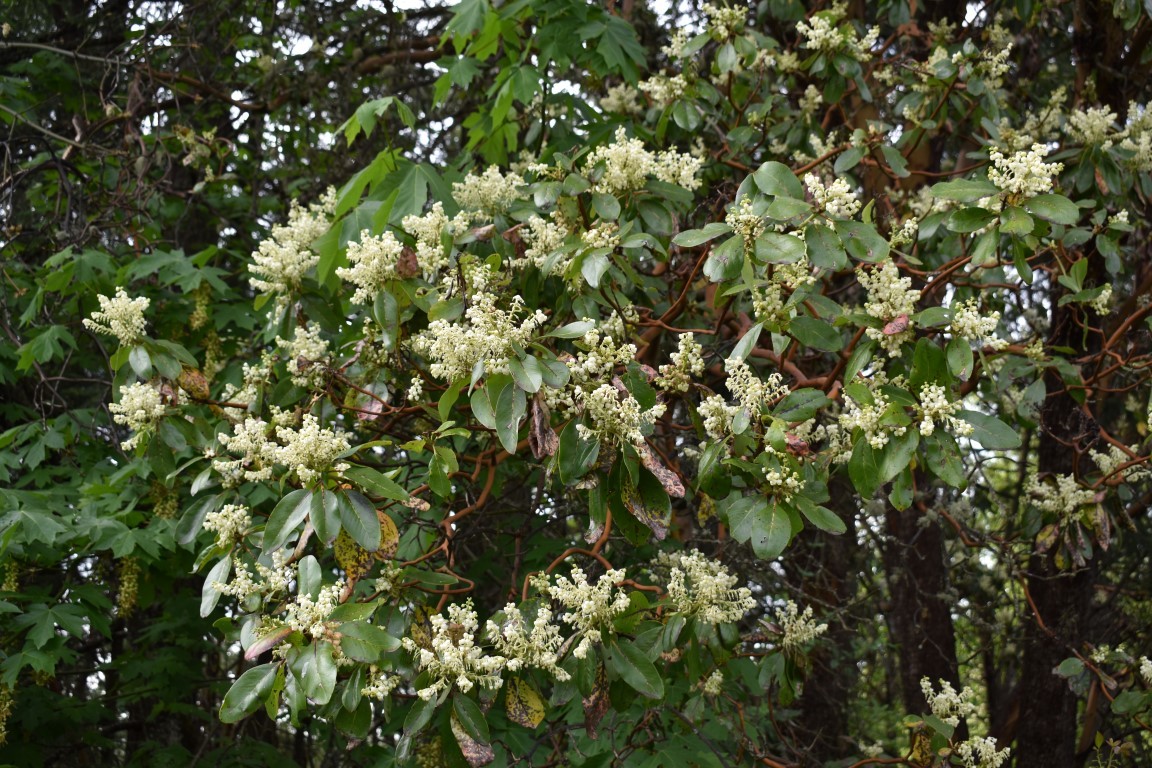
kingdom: Plantae
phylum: Tracheophyta
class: Magnoliopsida
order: Ericales
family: Ericaceae
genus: Arbutus
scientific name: Arbutus menziesii
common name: Pacific madrone
